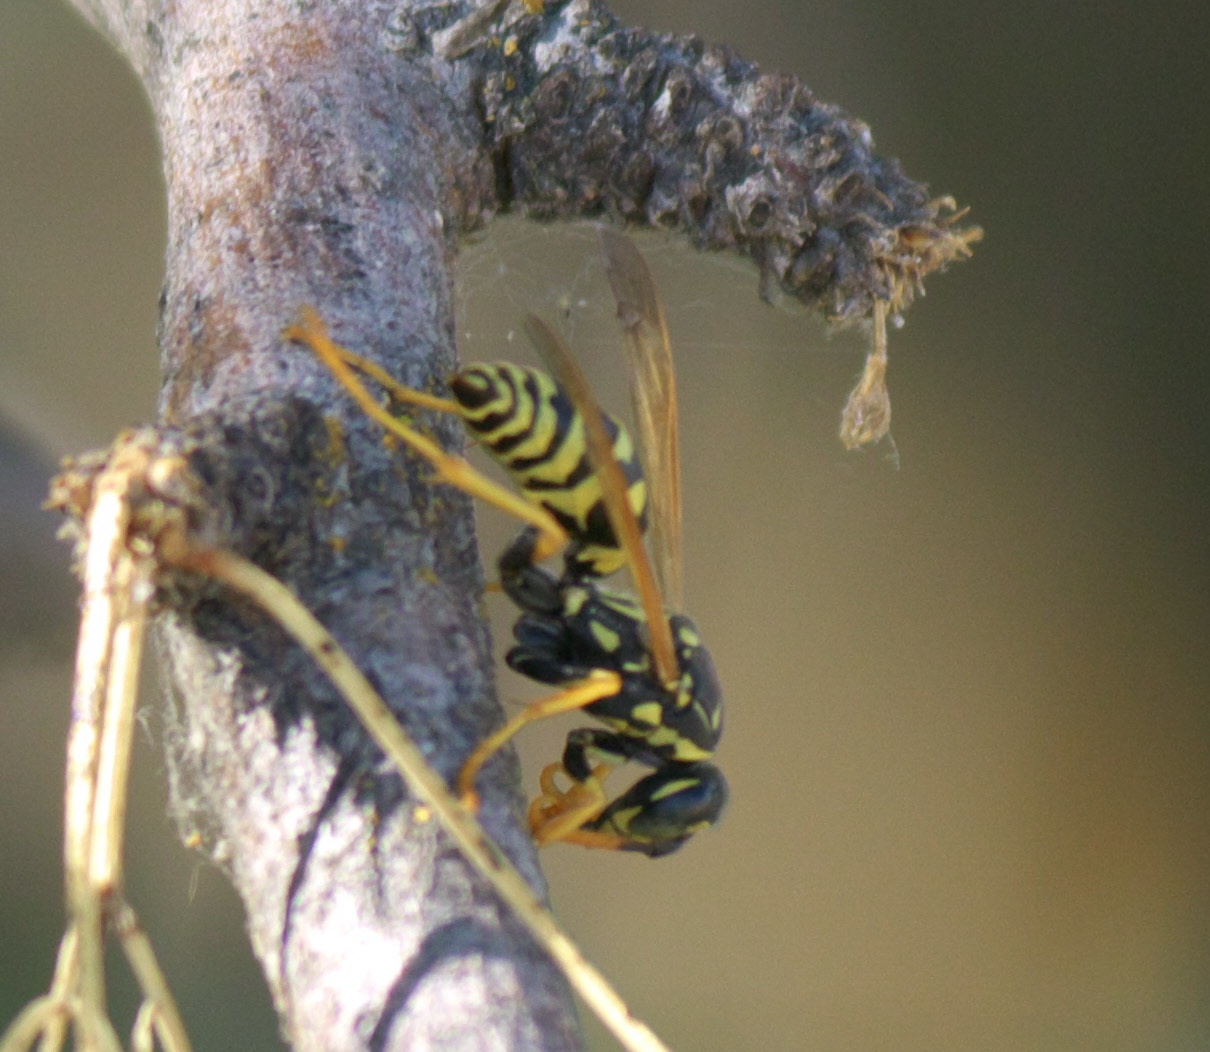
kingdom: Animalia
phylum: Arthropoda
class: Insecta
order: Hymenoptera
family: Eumenidae
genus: Polistes
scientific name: Polistes dominula
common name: Paper wasp
